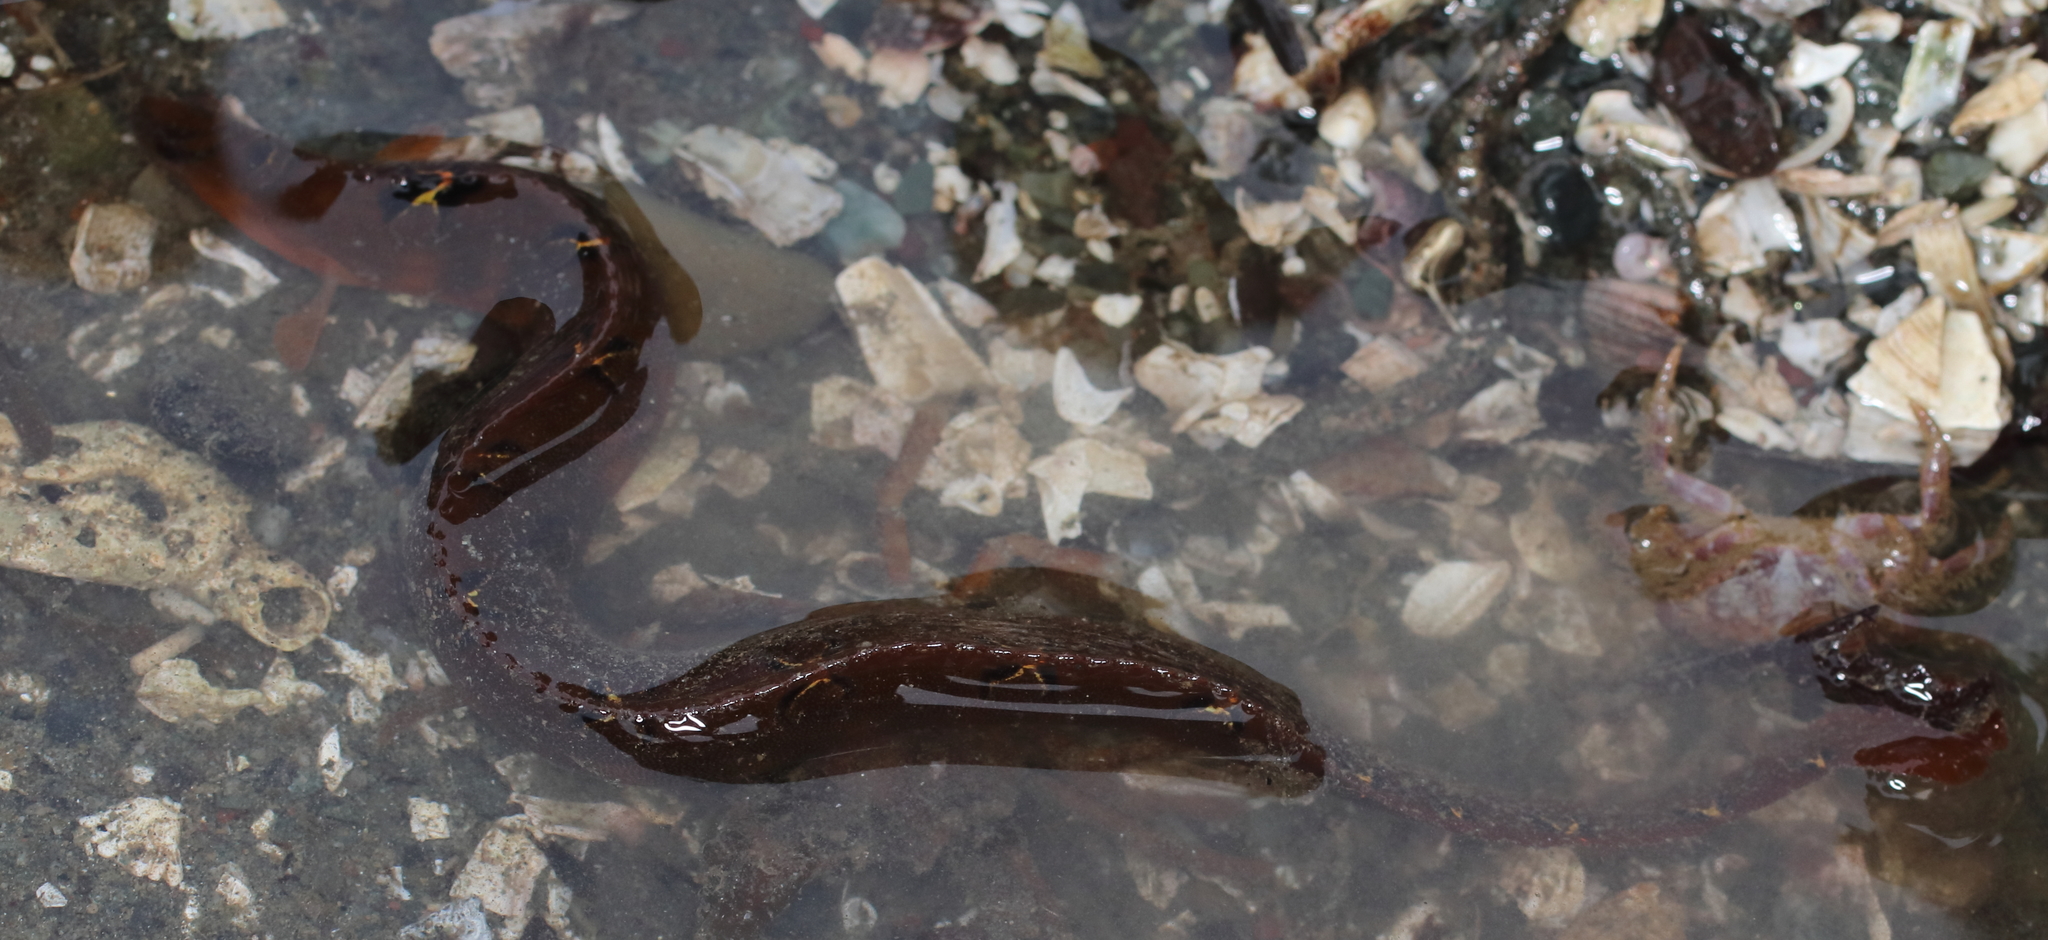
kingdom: Animalia
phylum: Chordata
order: Perciformes
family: Pholidae
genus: Pholis
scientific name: Pholis laeta
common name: Crescent gunnel
